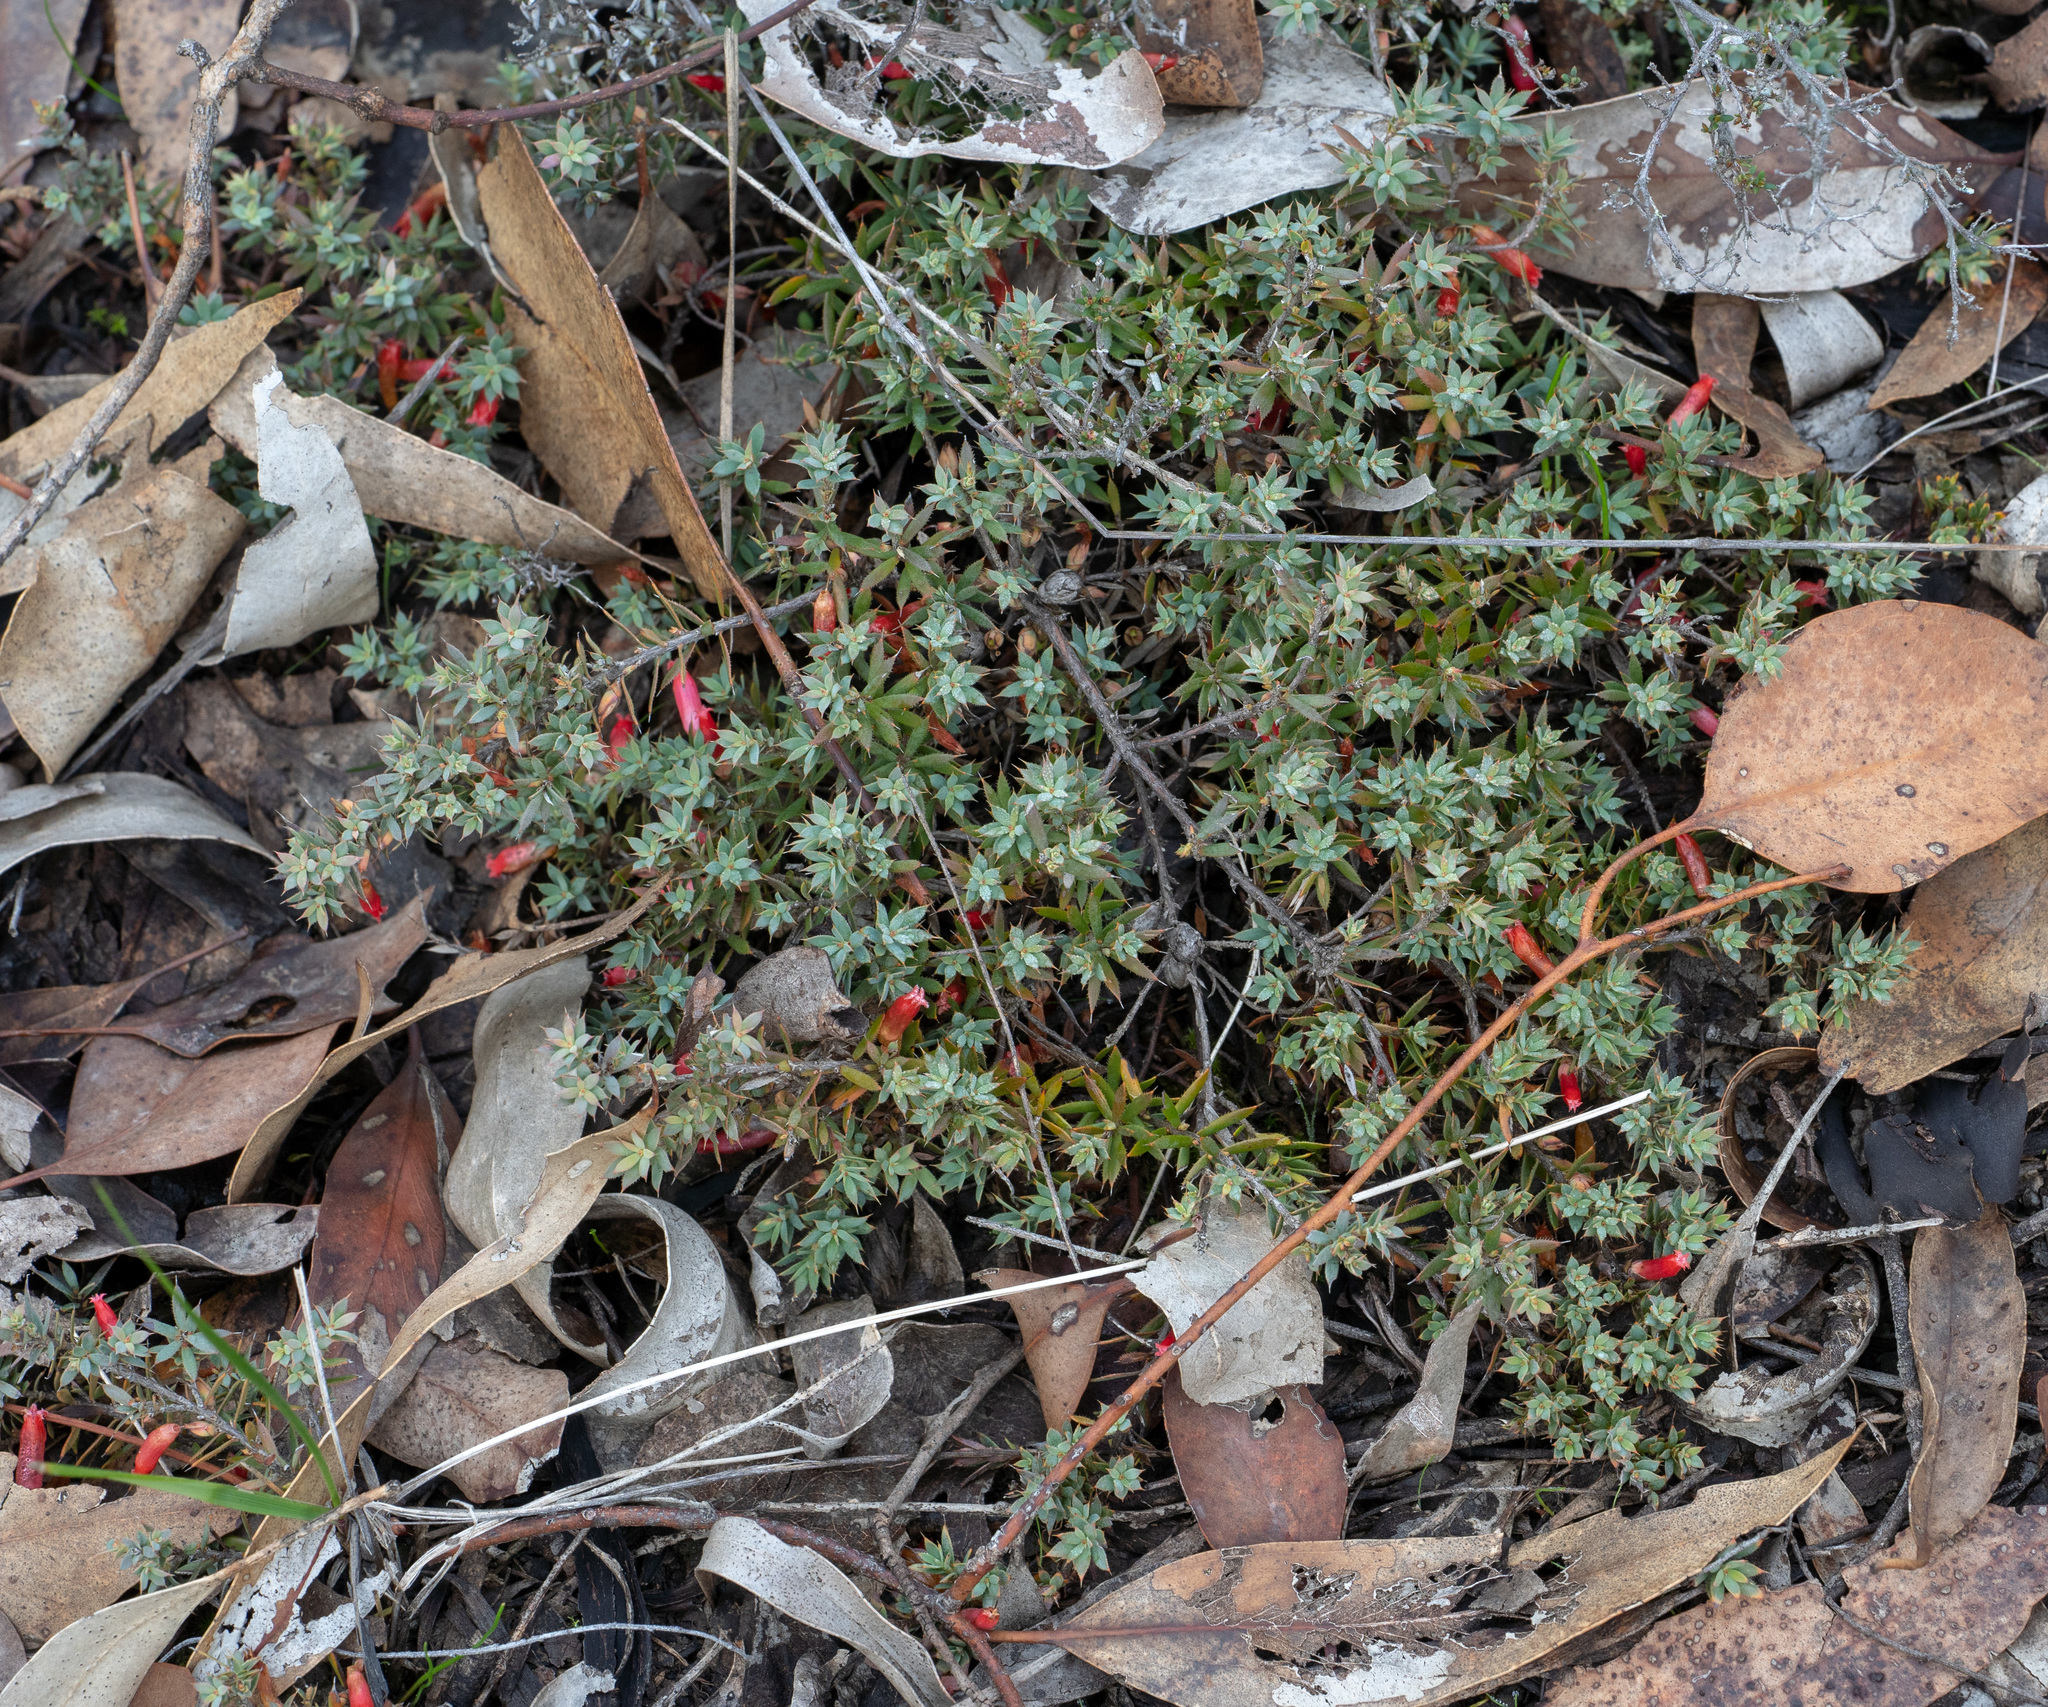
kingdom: Plantae
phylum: Tracheophyta
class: Magnoliopsida
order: Ericales
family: Ericaceae
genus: Styphelia
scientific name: Styphelia humifusa
